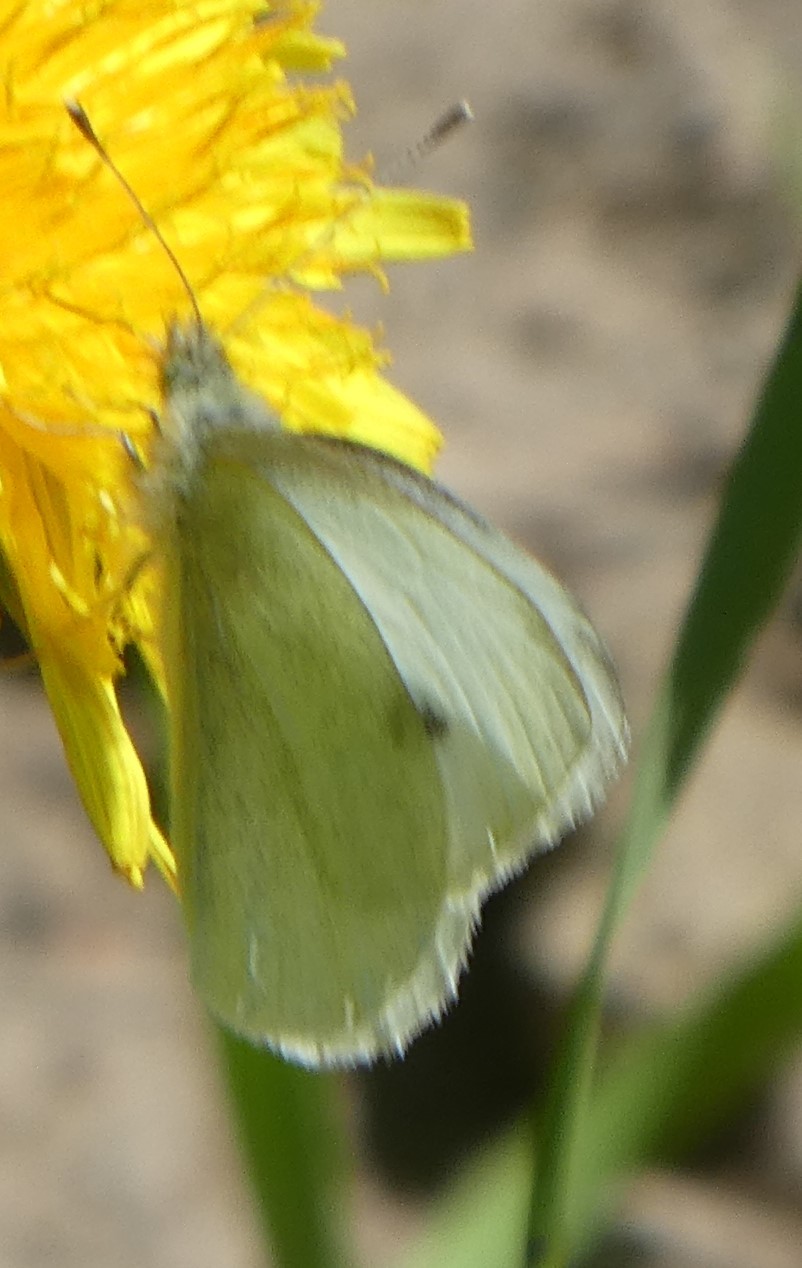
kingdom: Animalia
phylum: Arthropoda
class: Insecta
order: Lepidoptera
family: Pieridae
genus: Pieris
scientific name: Pieris rapae
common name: Small white
